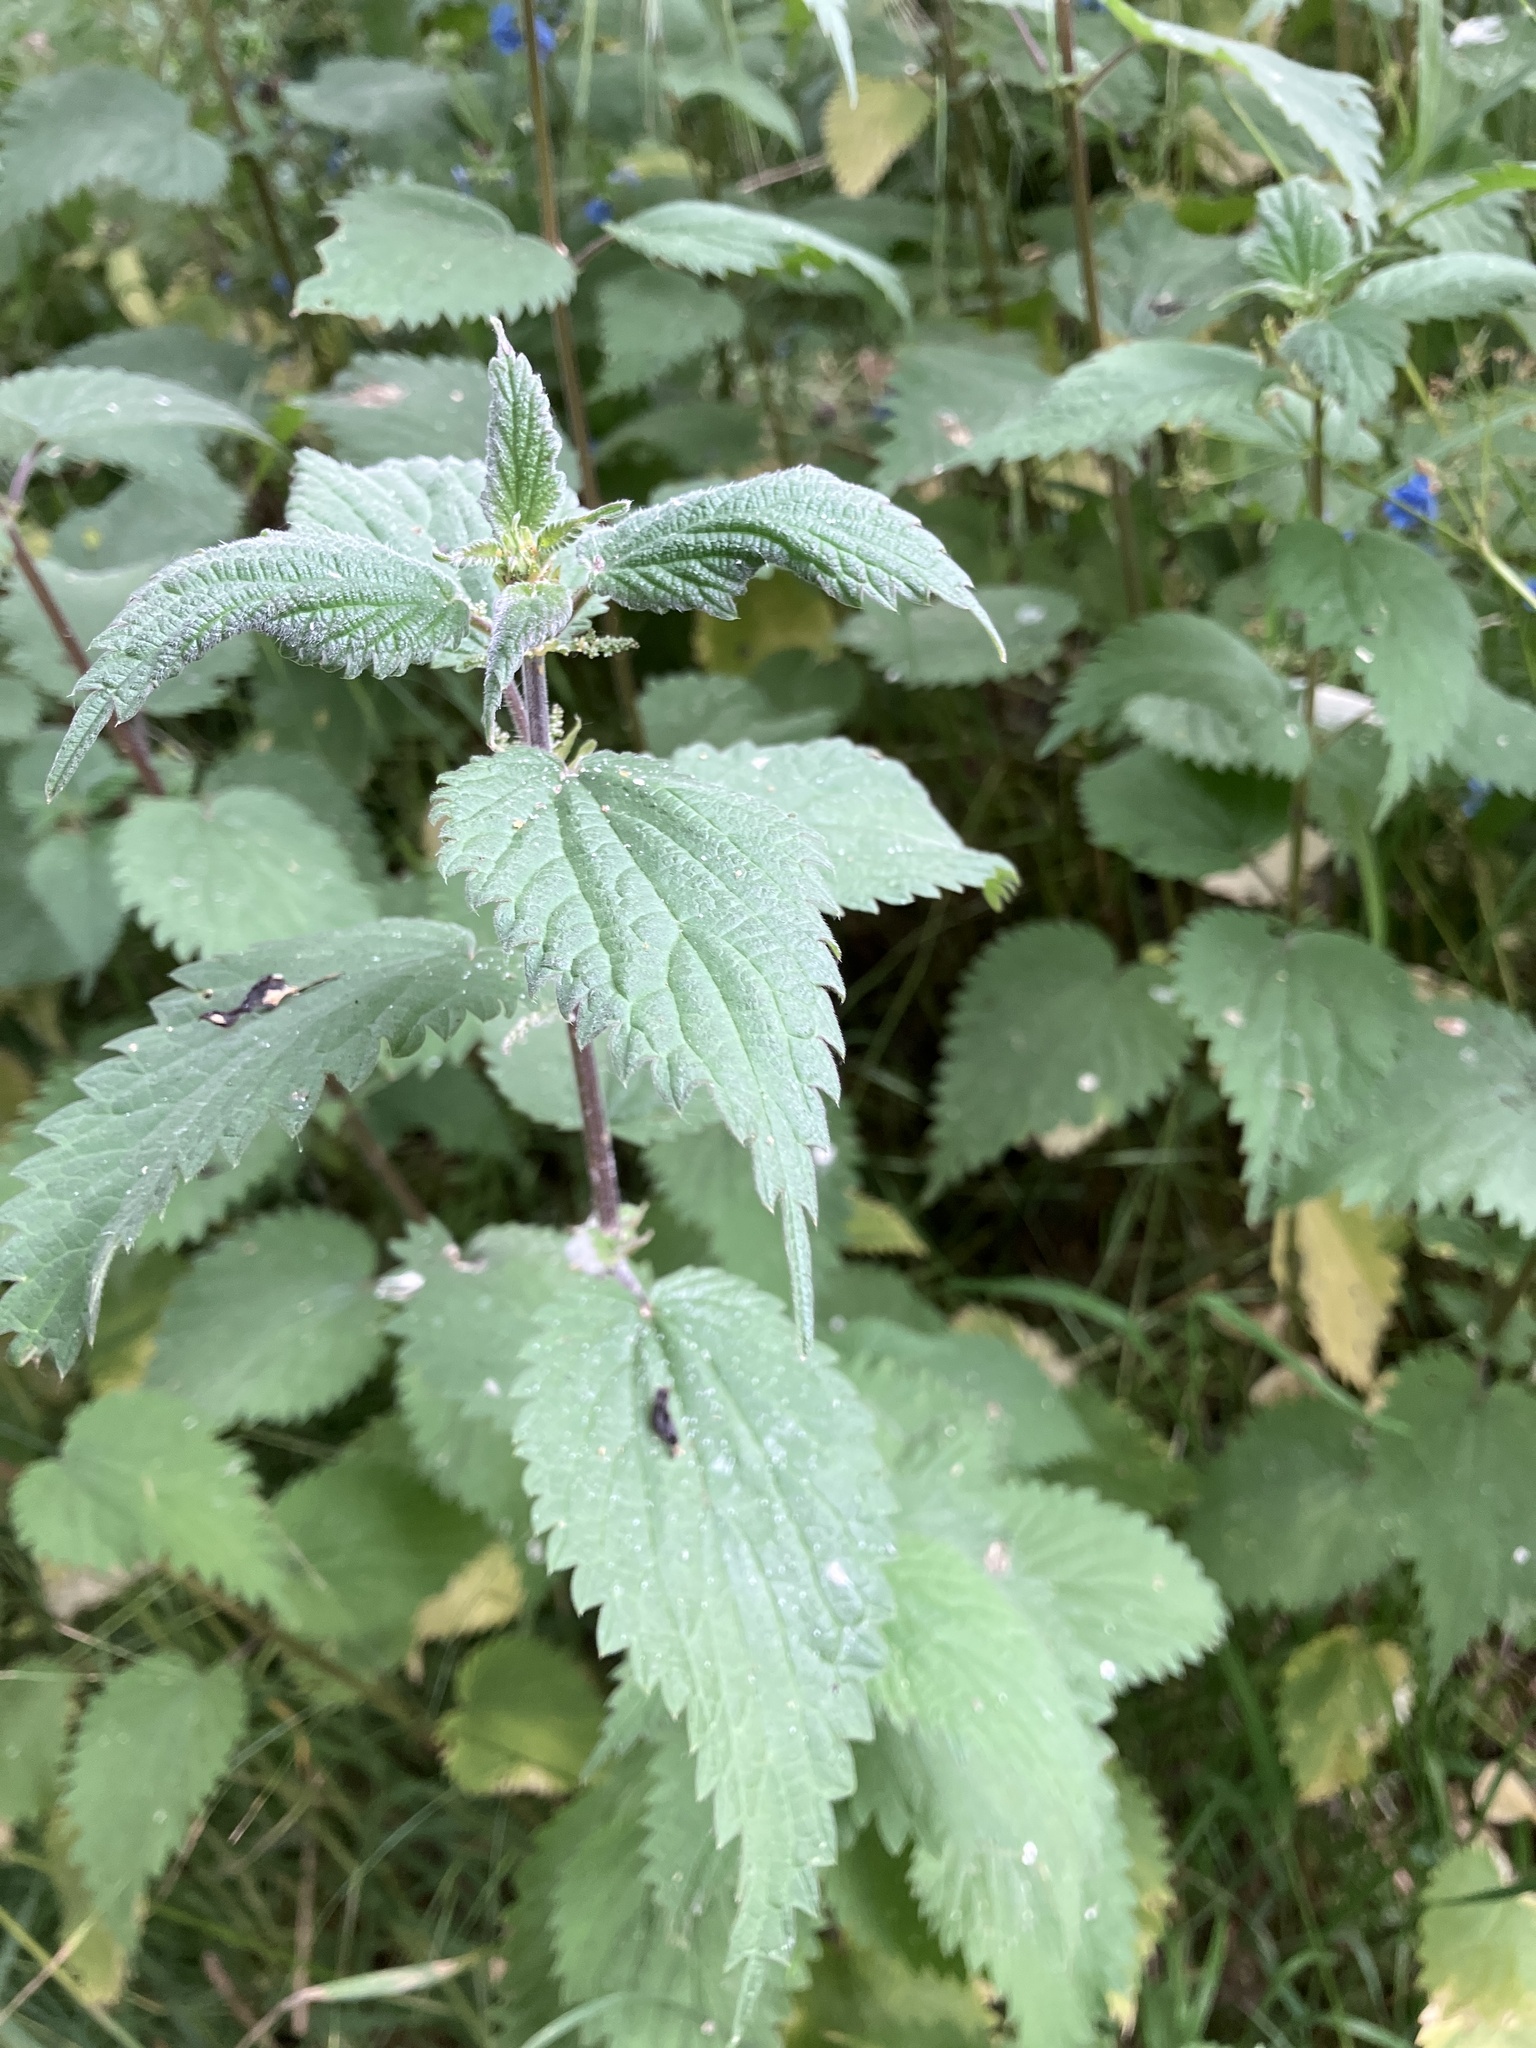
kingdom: Plantae
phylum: Tracheophyta
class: Magnoliopsida
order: Rosales
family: Urticaceae
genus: Urtica
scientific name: Urtica dioica
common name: Common nettle
